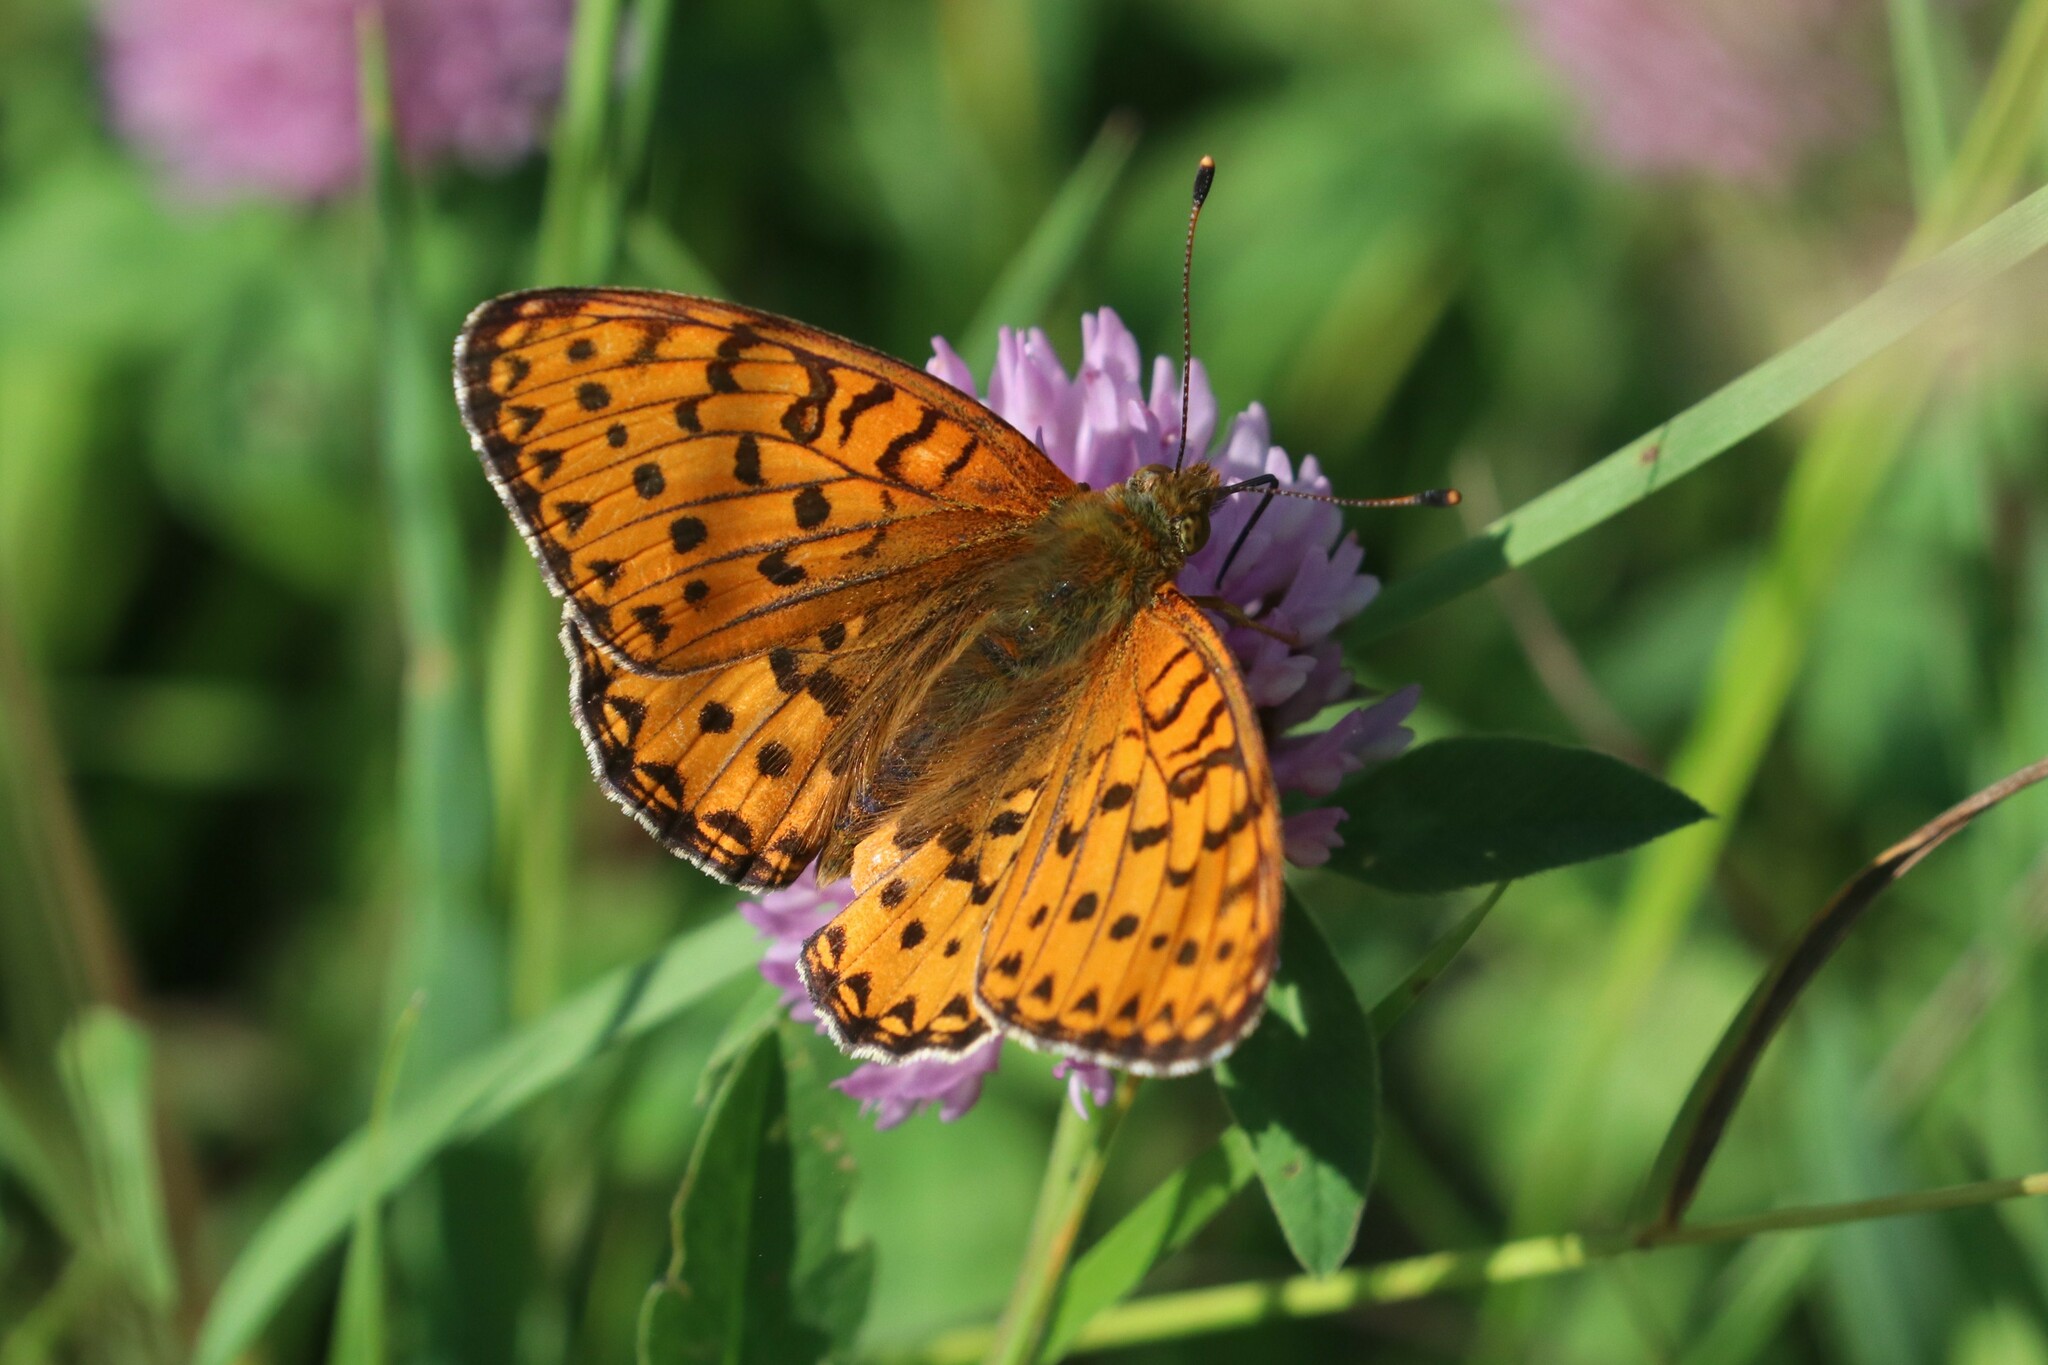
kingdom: Animalia
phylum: Arthropoda
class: Insecta
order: Lepidoptera
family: Nymphalidae
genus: Speyeria
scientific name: Speyeria aglaja
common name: Dark green fritillary
